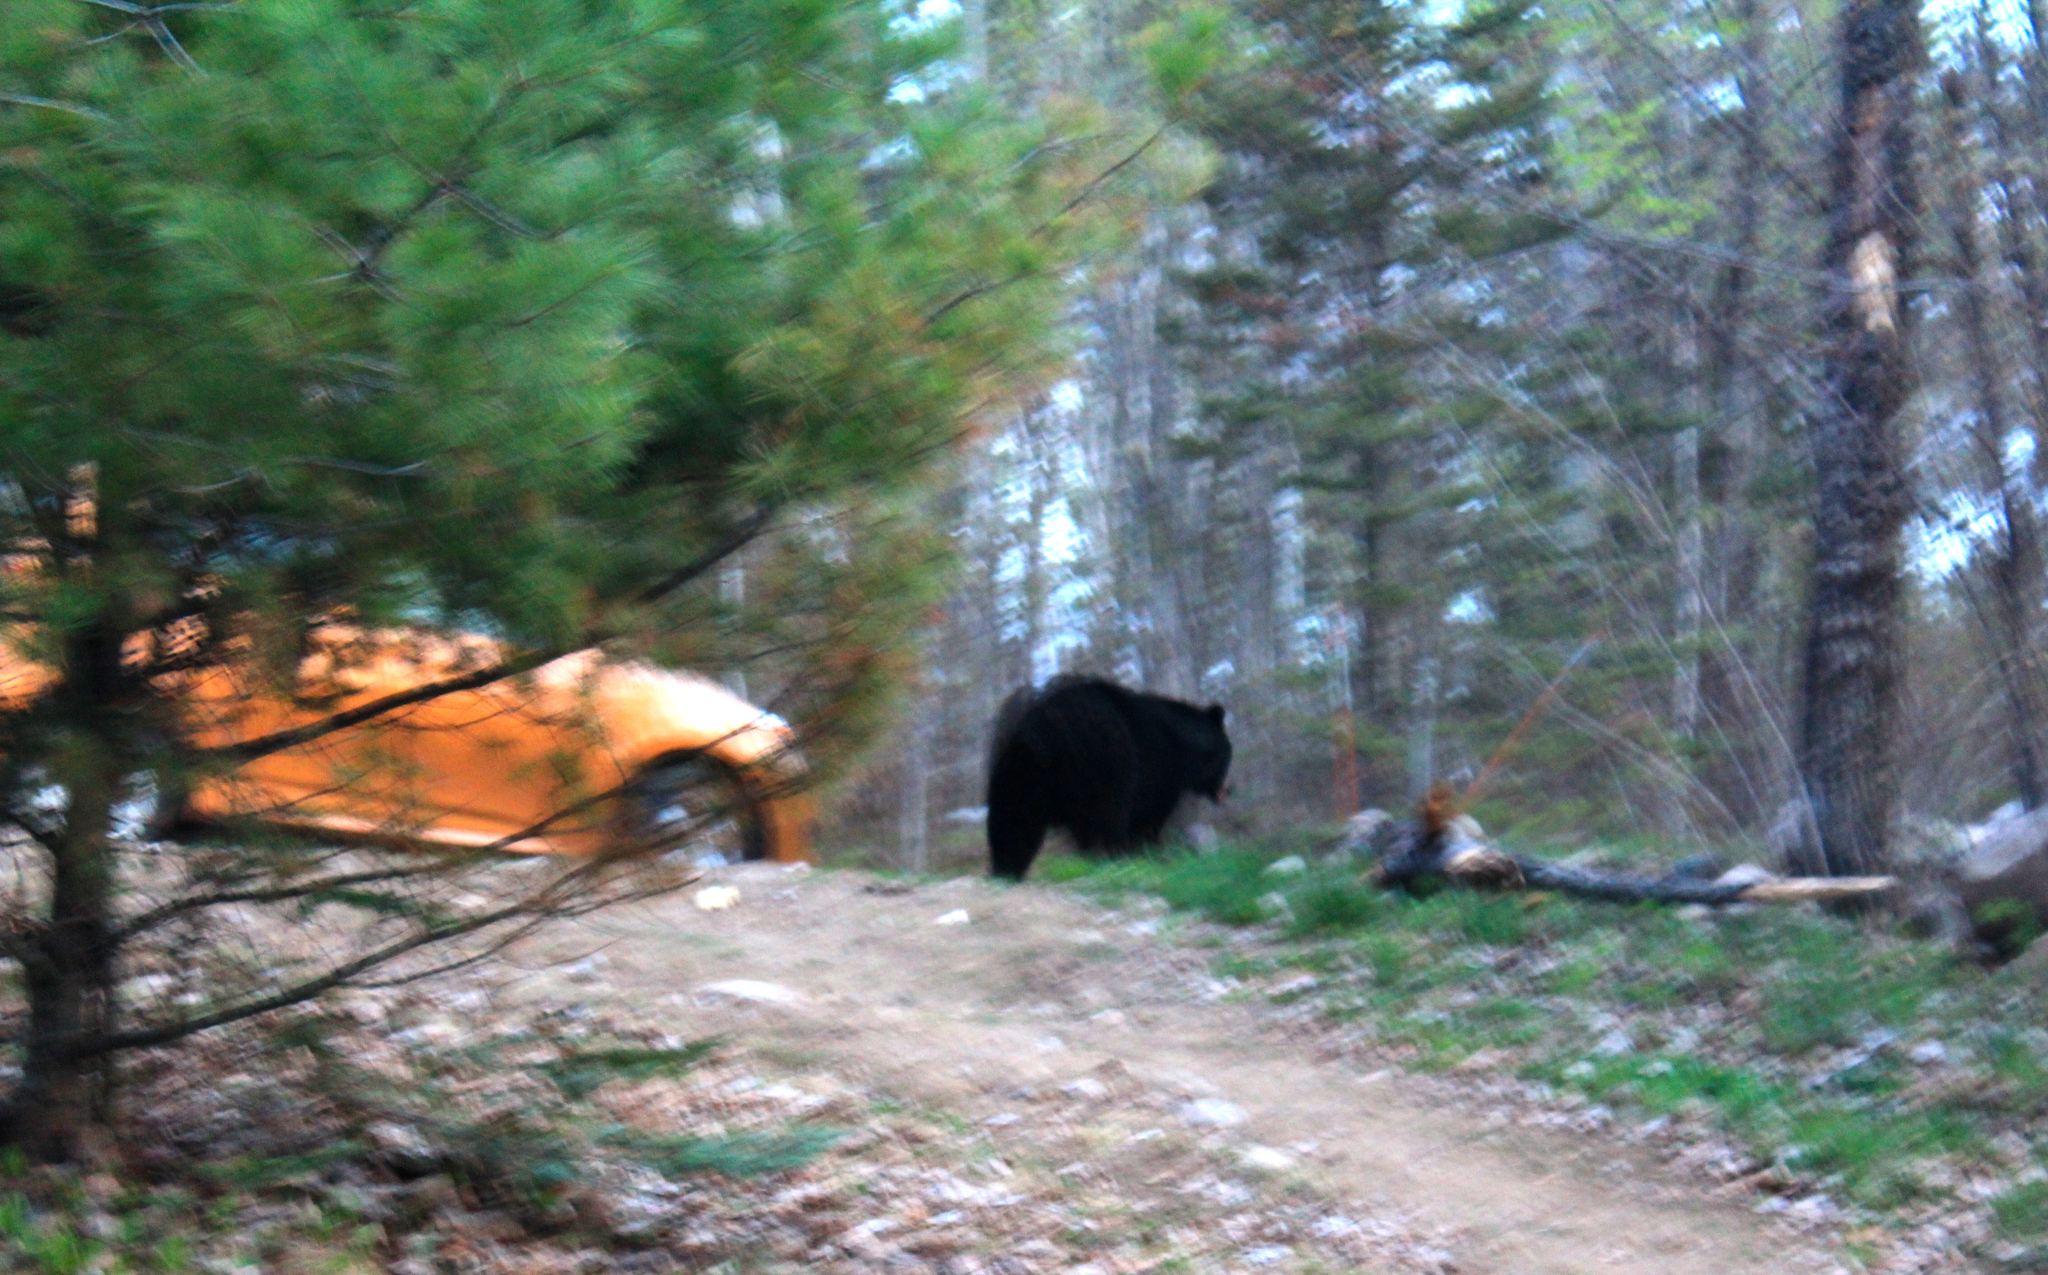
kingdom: Animalia
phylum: Chordata
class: Mammalia
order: Carnivora
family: Ursidae
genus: Ursus
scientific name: Ursus americanus
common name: American black bear
